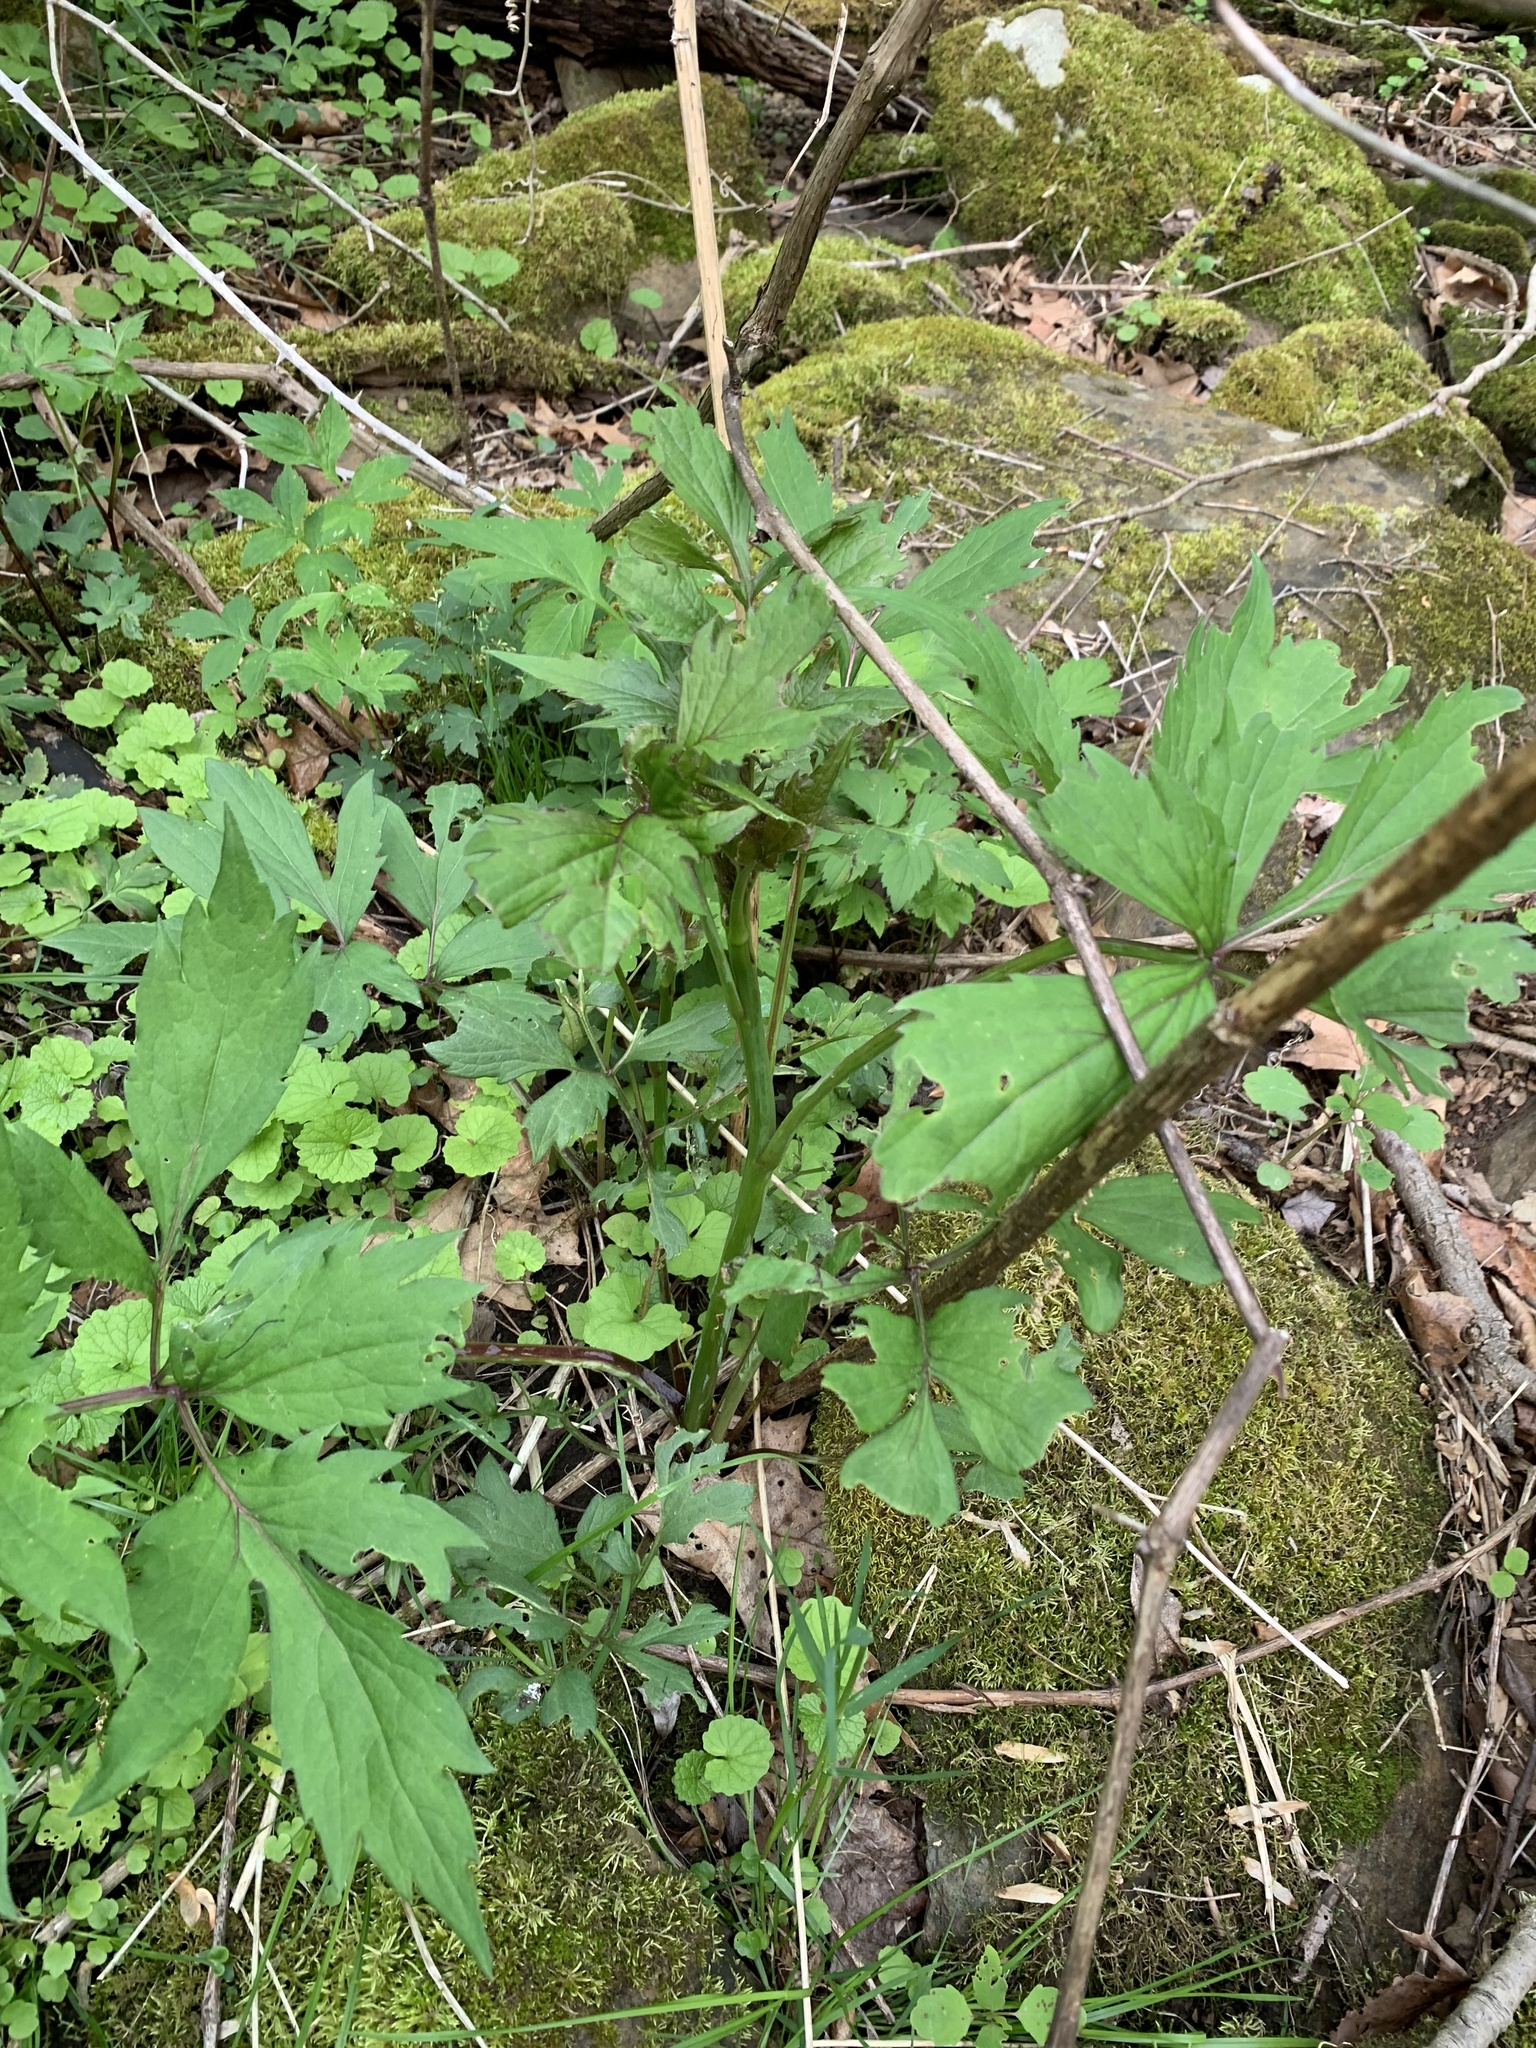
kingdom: Plantae
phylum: Tracheophyta
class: Magnoliopsida
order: Asterales
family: Asteraceae
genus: Rudbeckia
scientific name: Rudbeckia laciniata
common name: Coneflower
